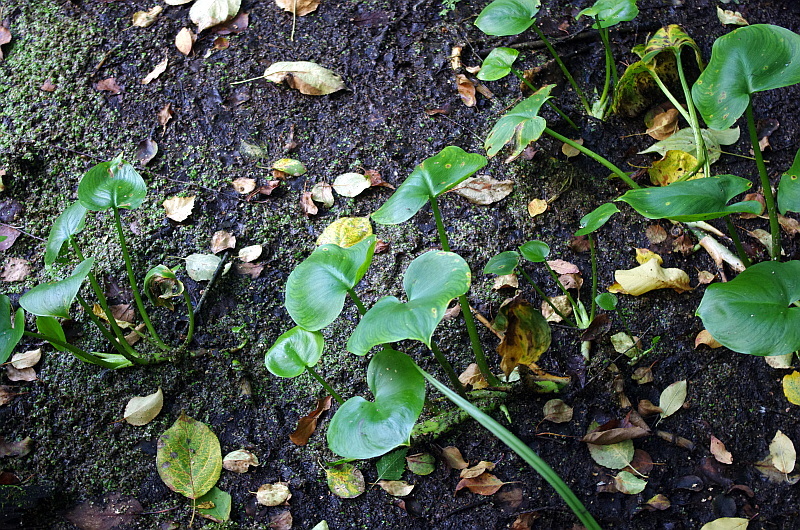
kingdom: Plantae
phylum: Tracheophyta
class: Liliopsida
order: Alismatales
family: Araceae
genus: Calla
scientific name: Calla palustris
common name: Bog arum
